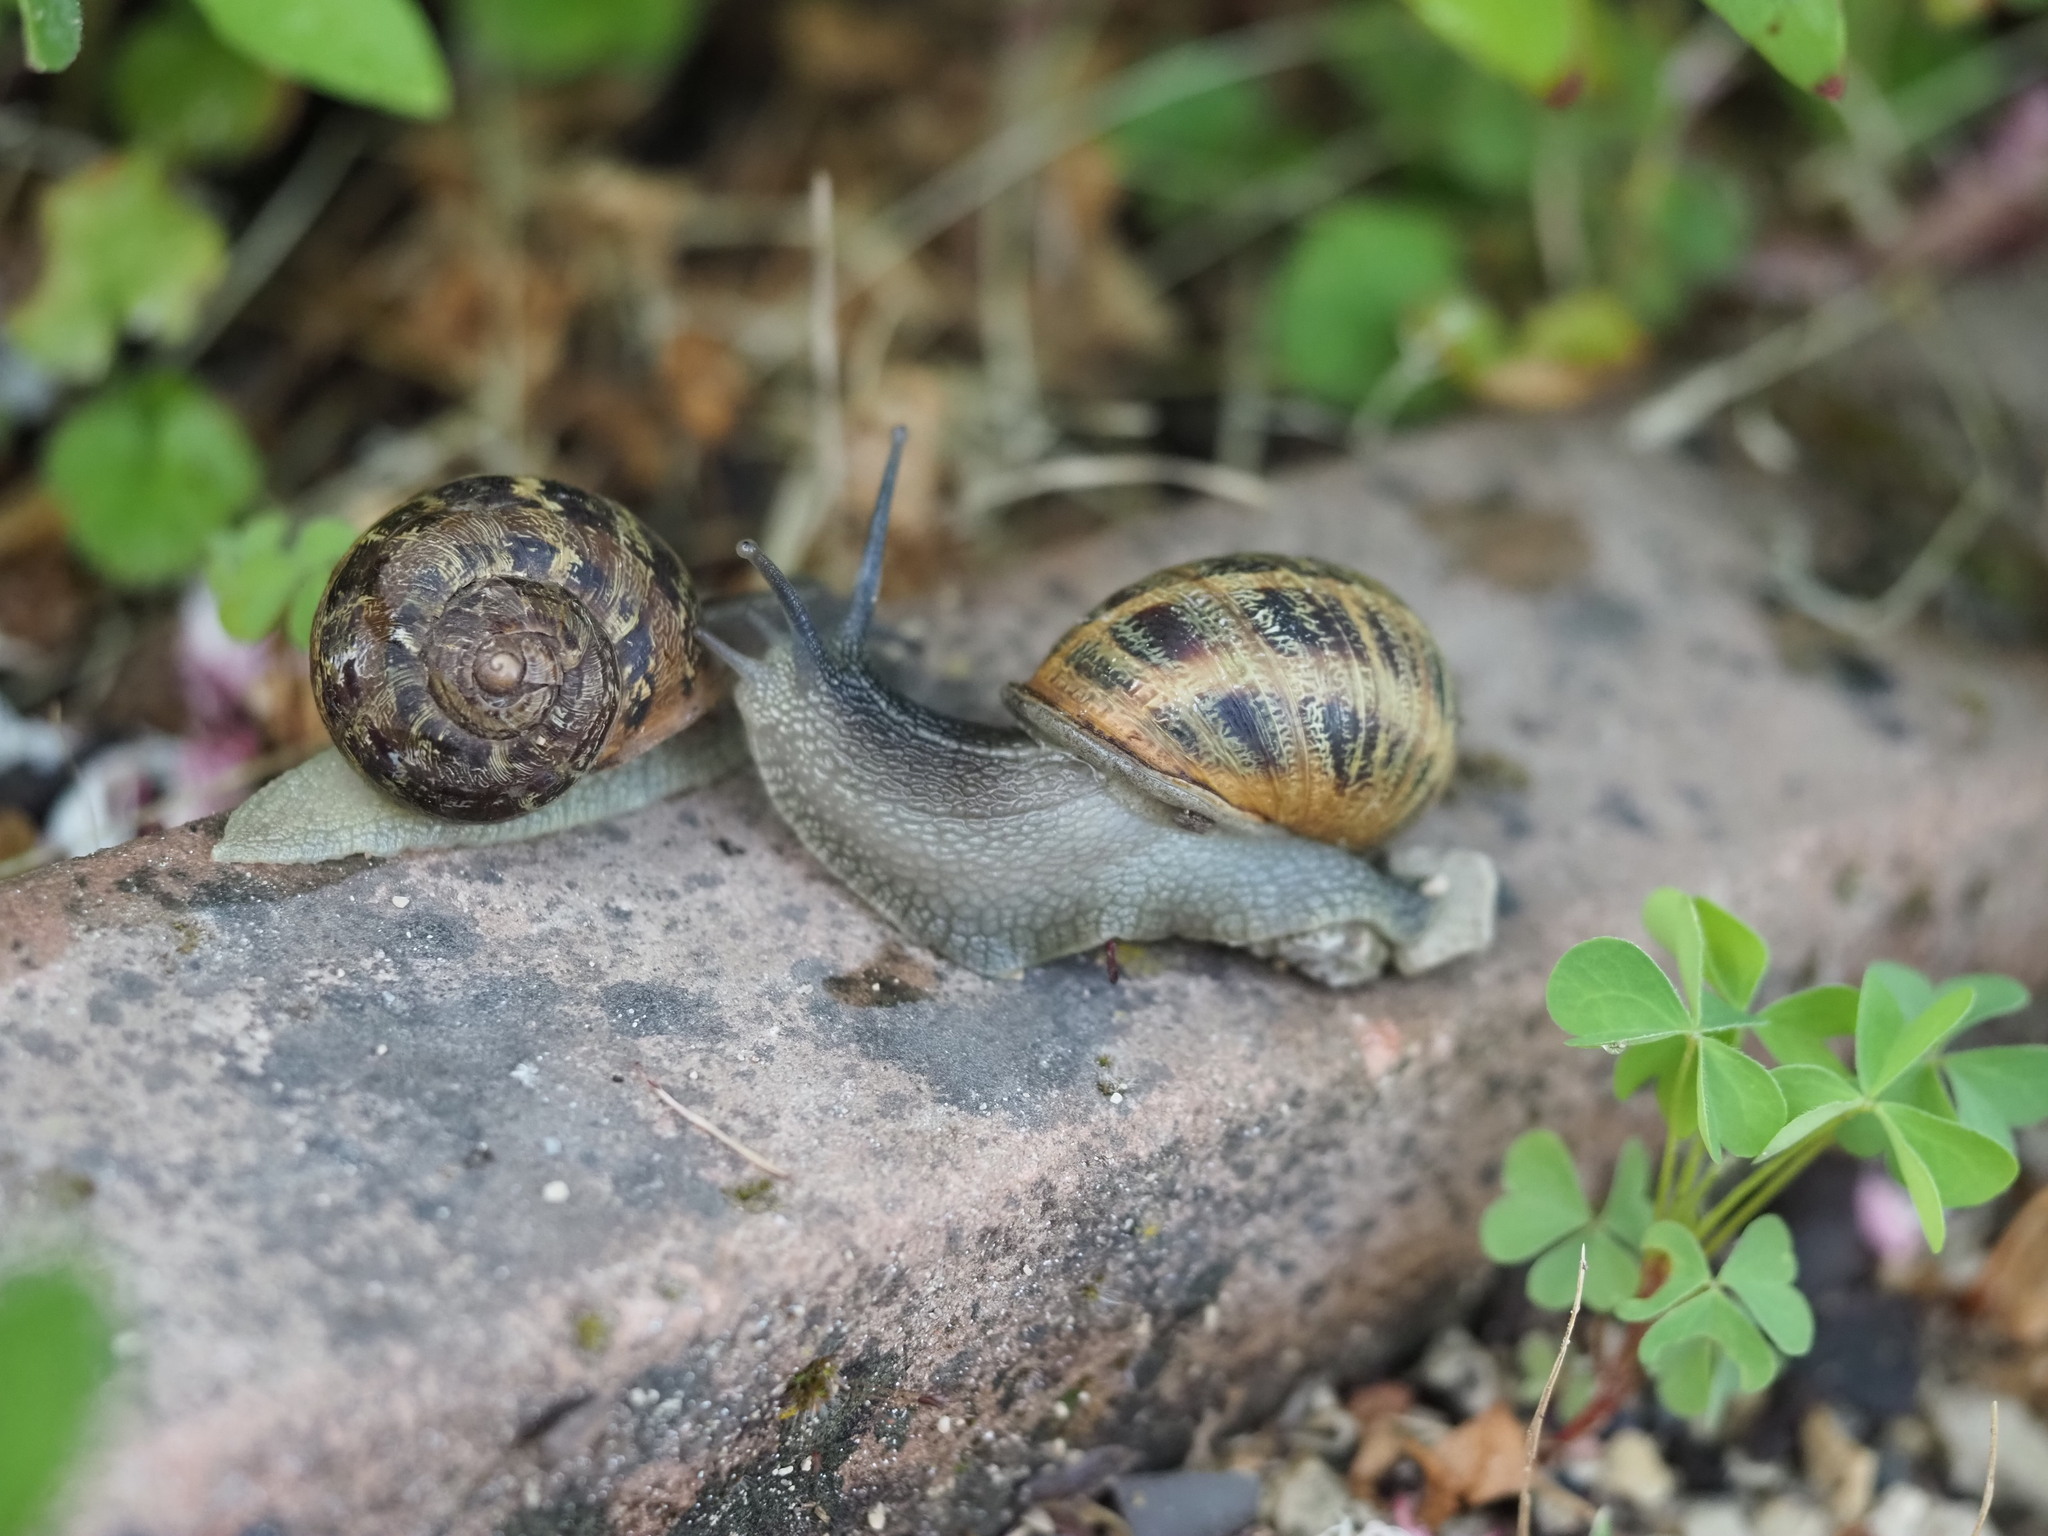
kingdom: Animalia
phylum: Mollusca
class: Gastropoda
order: Stylommatophora
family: Helicidae
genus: Cornu
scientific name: Cornu aspersum
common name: Brown garden snail
